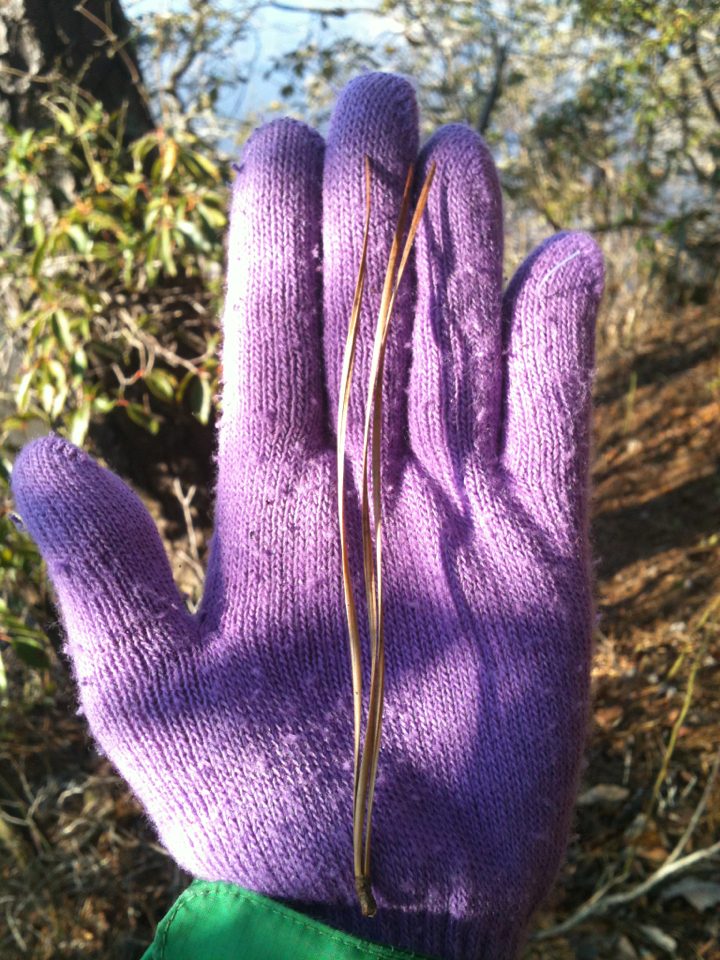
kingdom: Plantae
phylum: Tracheophyta
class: Pinopsida
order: Pinales
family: Pinaceae
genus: Pinus
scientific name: Pinus rigida
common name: Pitch pine
